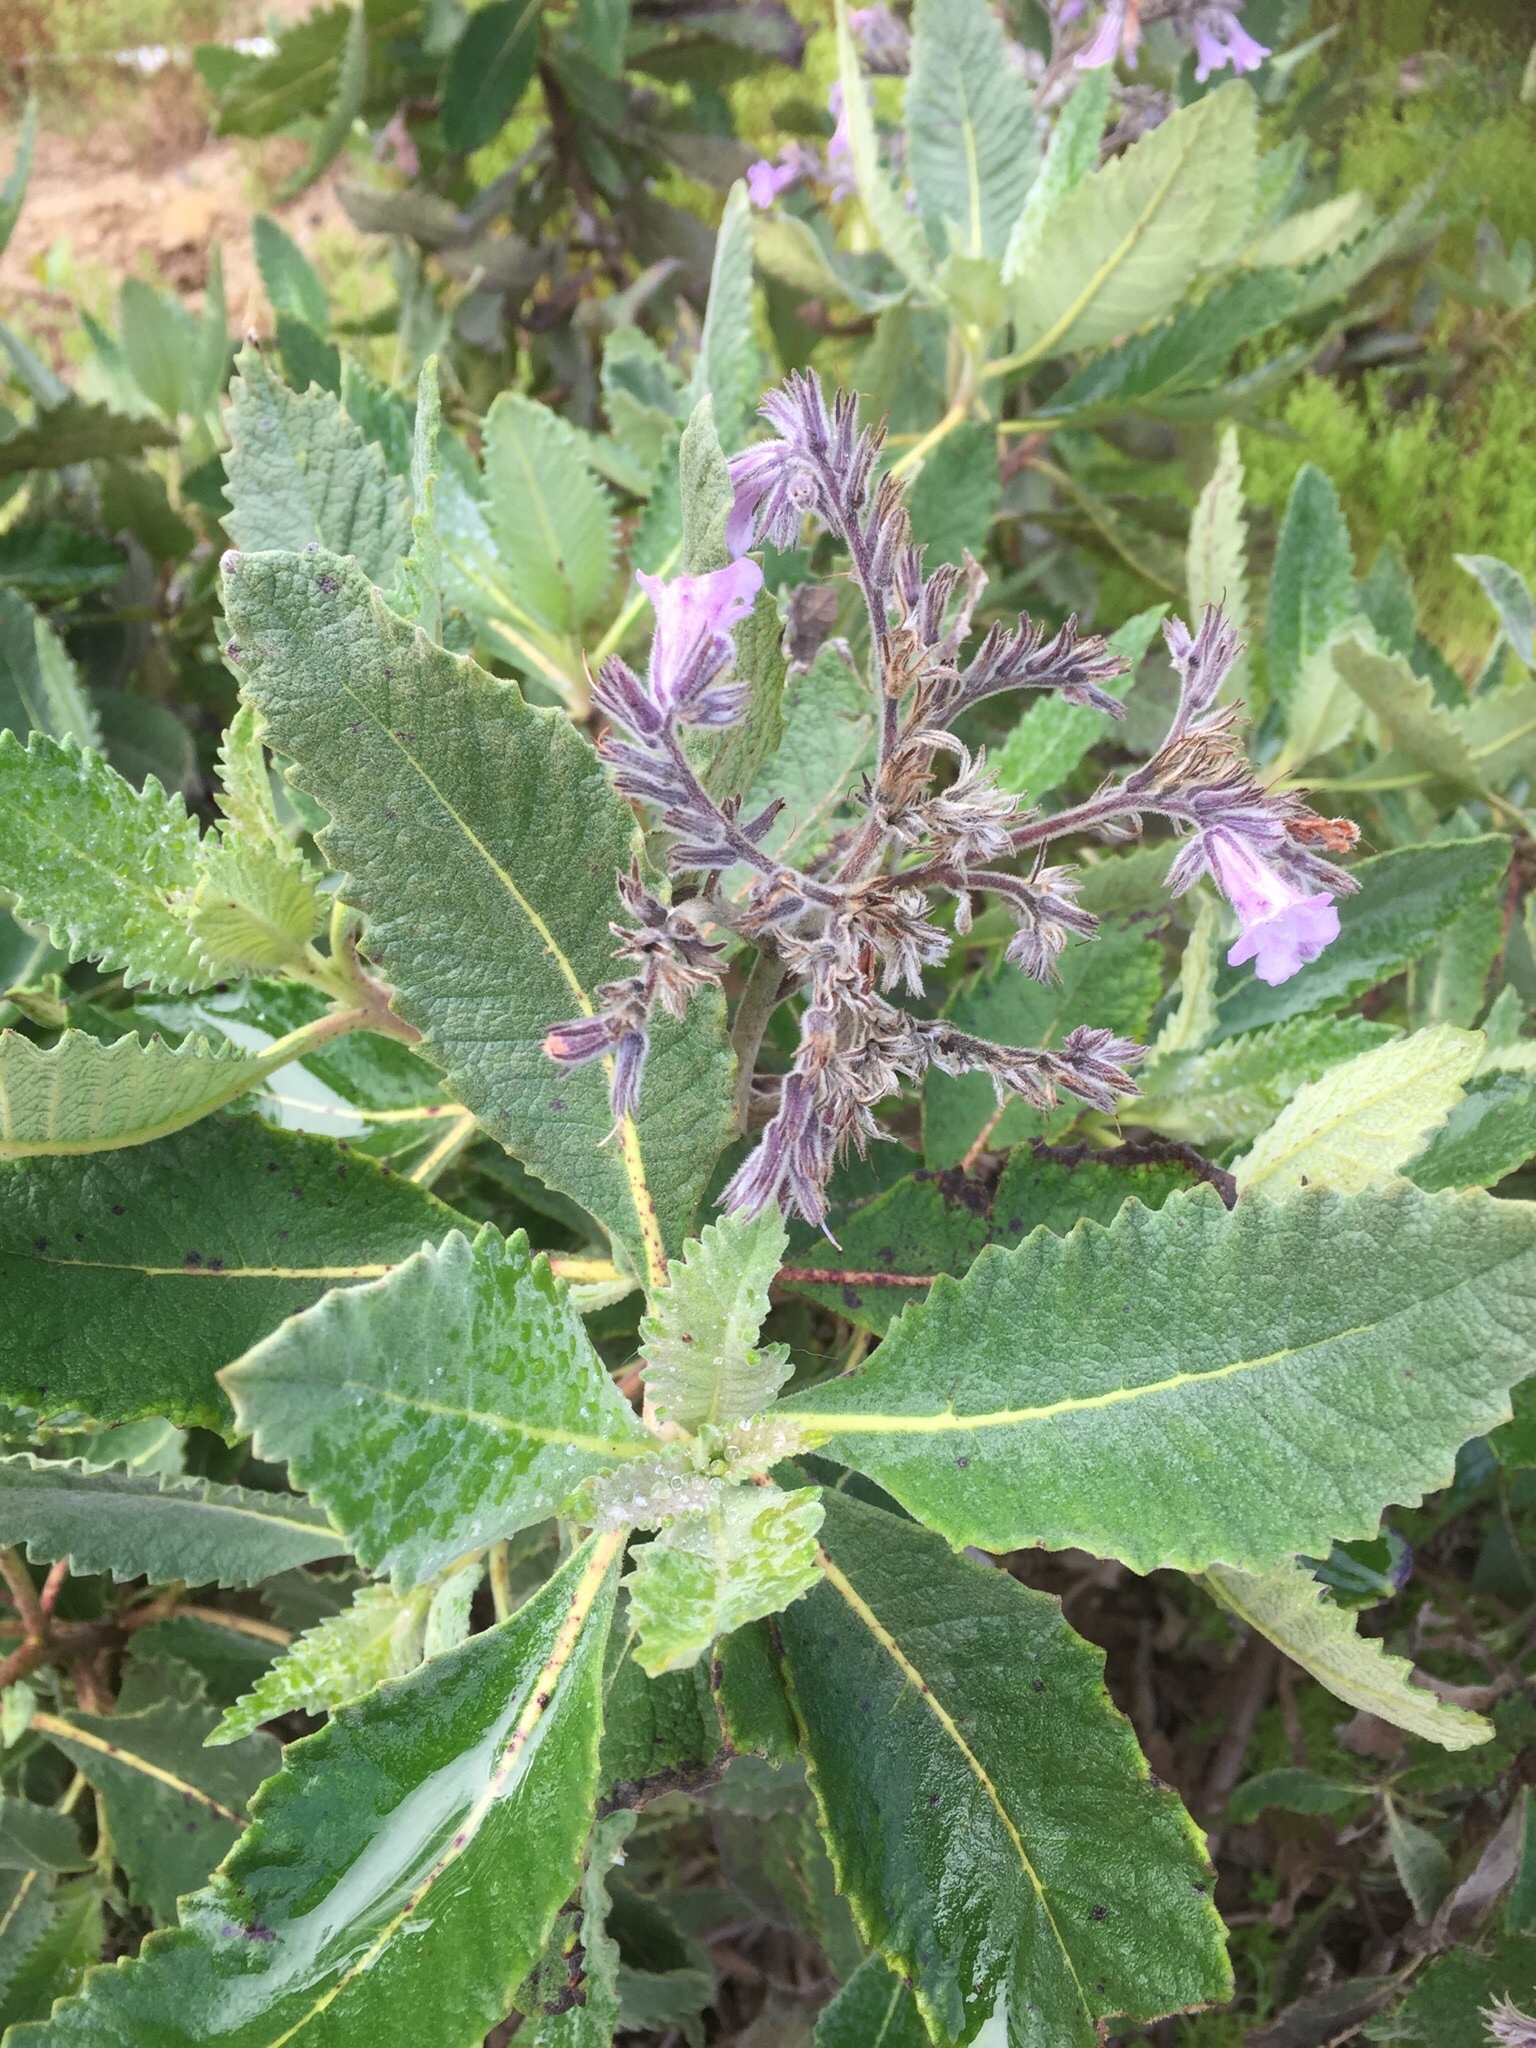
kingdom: Plantae
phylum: Tracheophyta
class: Magnoliopsida
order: Boraginales
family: Namaceae
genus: Eriodictyon
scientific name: Eriodictyon crassifolium
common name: Thick-leaf yerba-santa
